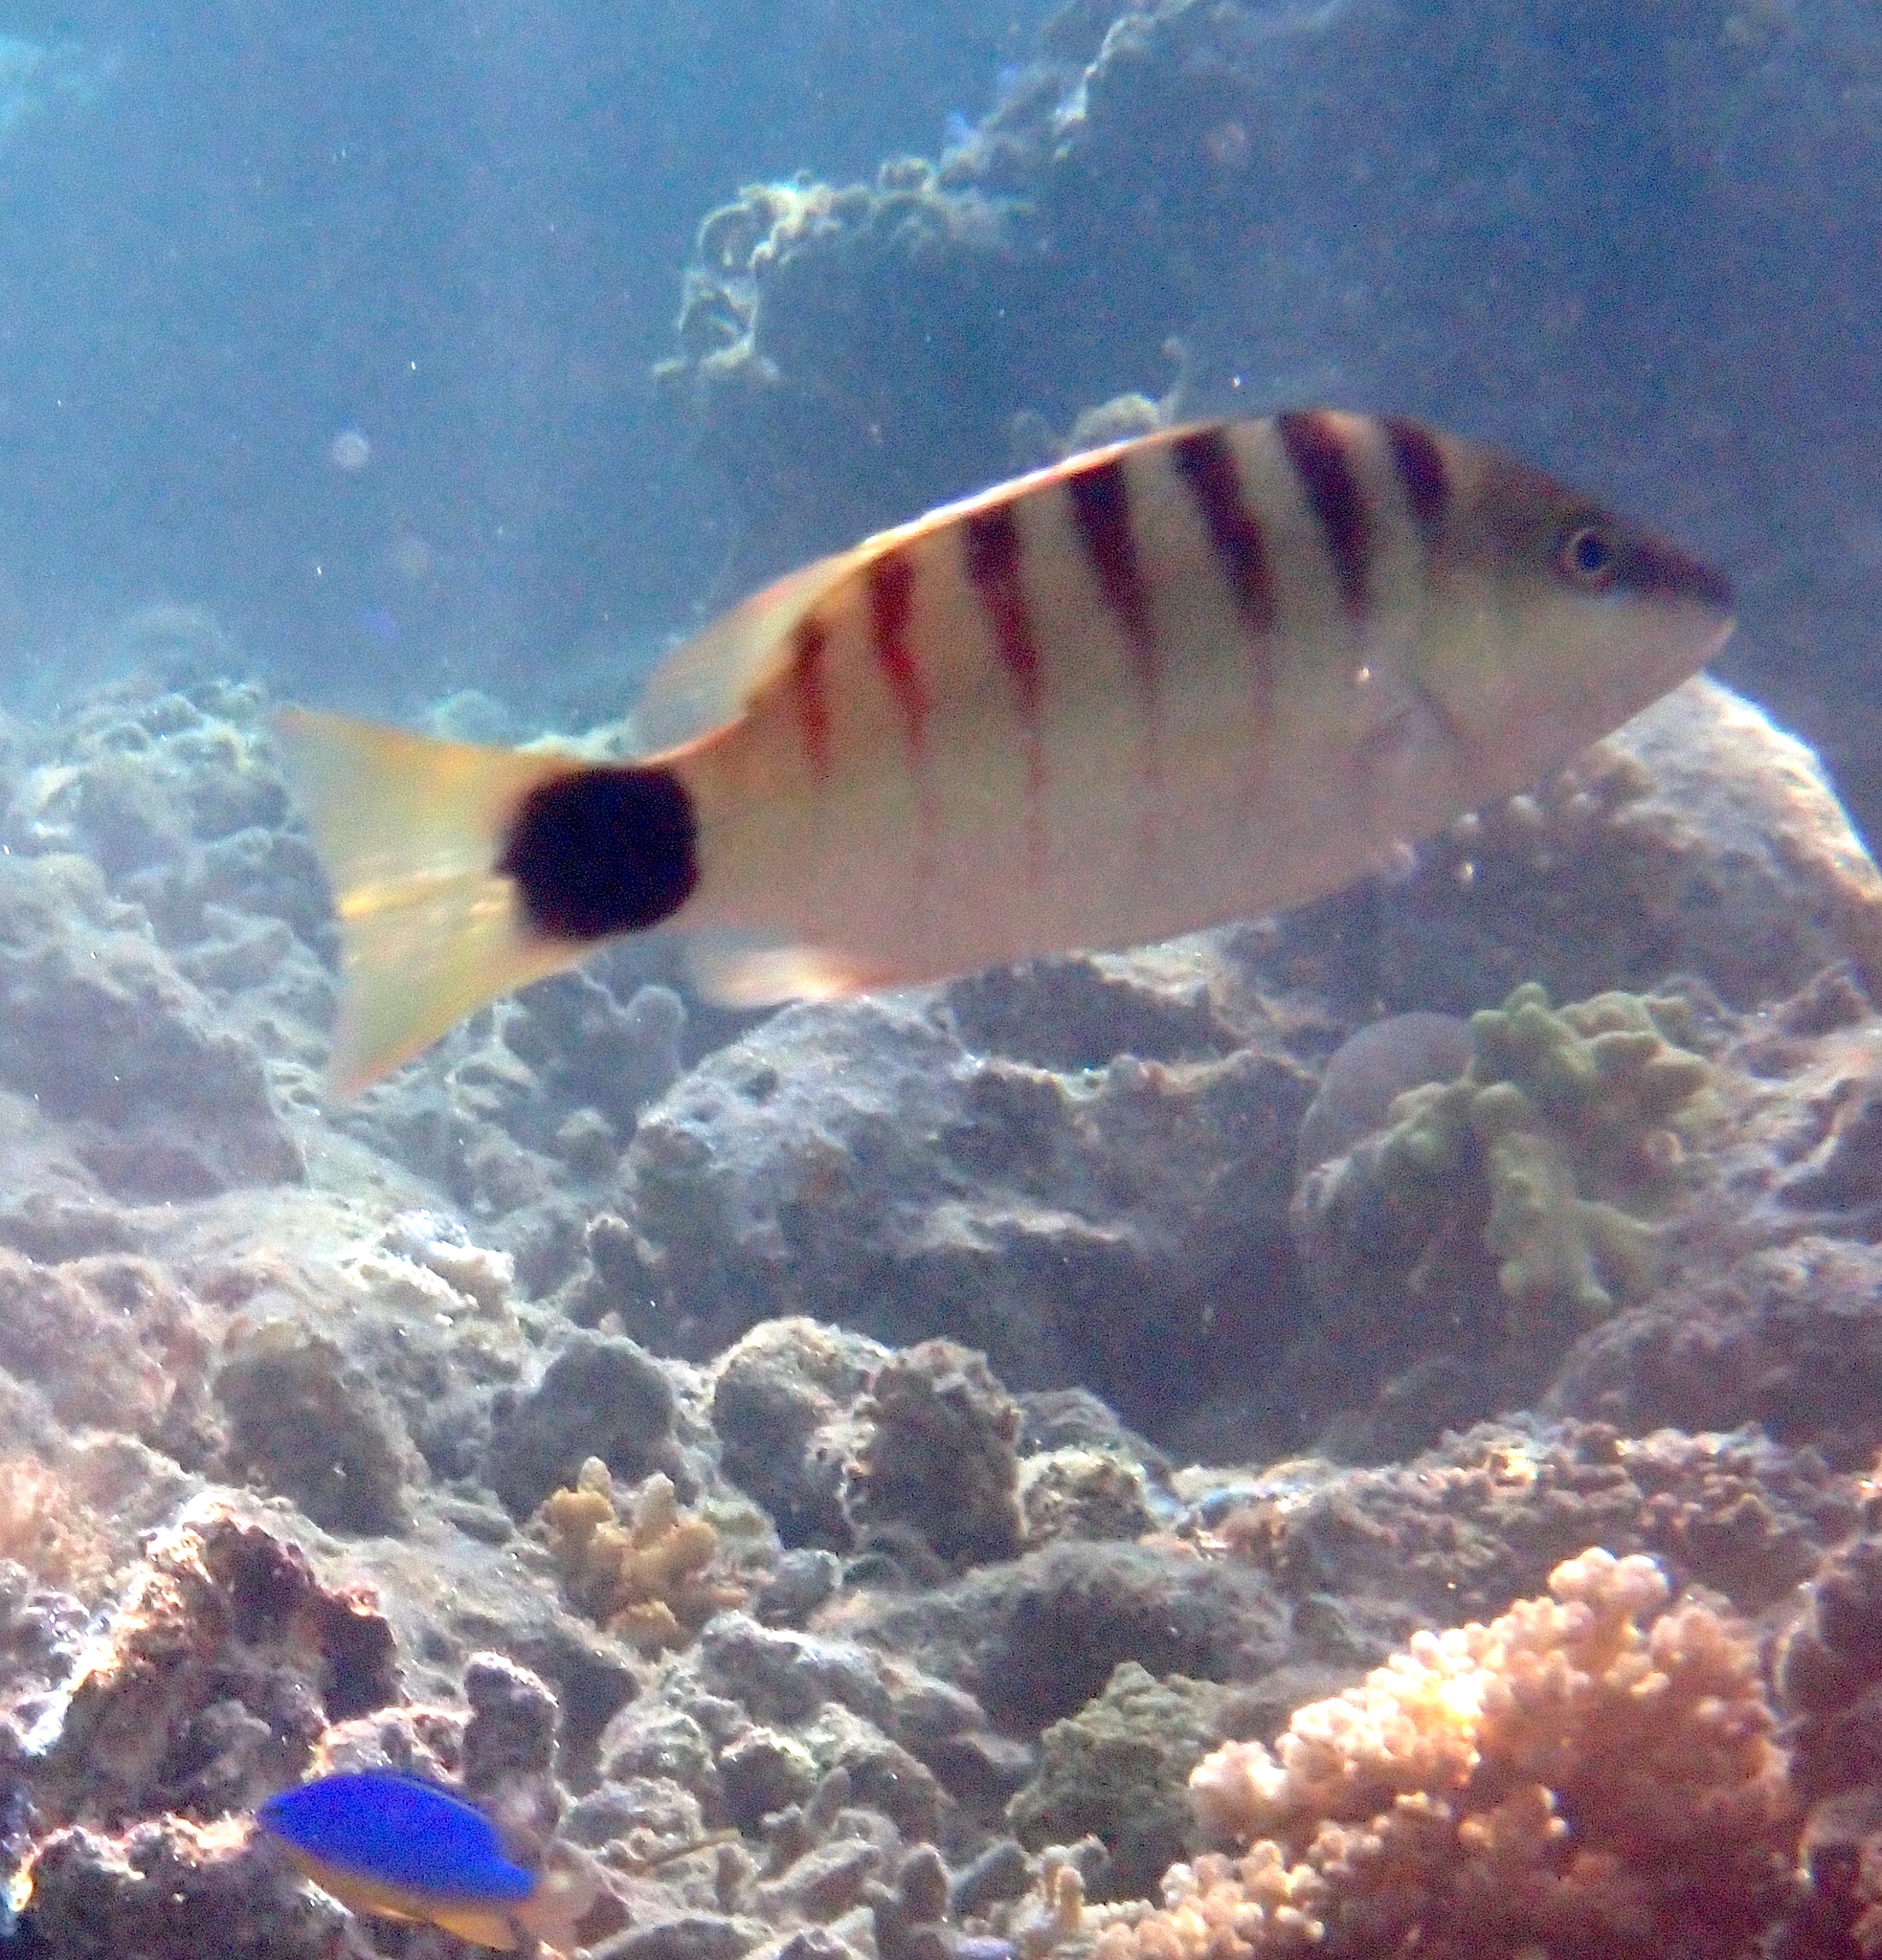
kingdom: Animalia
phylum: Chordata
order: Perciformes
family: Lutjanidae
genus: Lutjanus
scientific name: Lutjanus semicinctus
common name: Half-barred snapper
